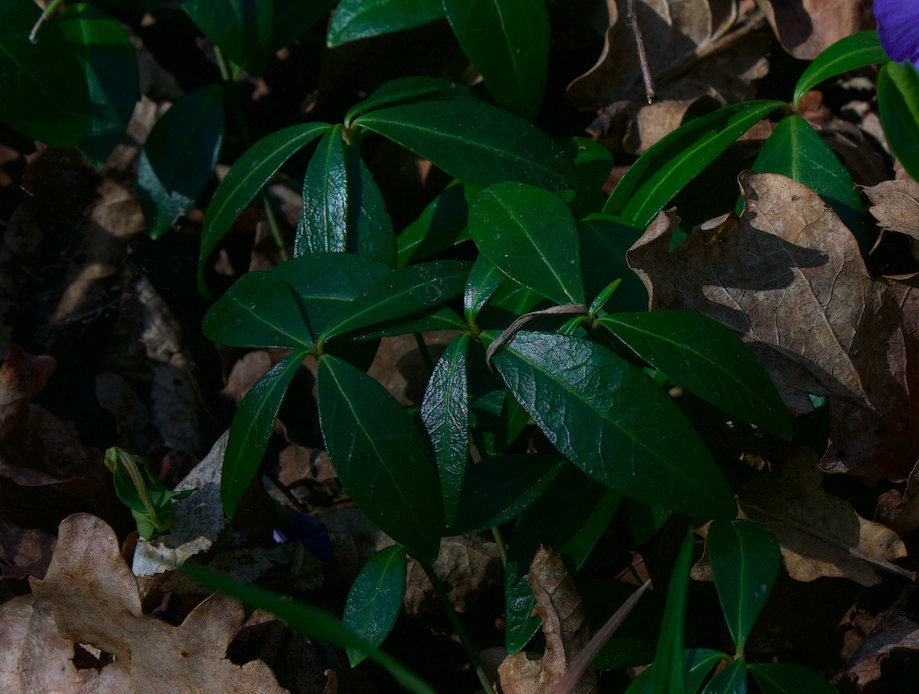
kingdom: Plantae
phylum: Tracheophyta
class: Magnoliopsida
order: Gentianales
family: Apocynaceae
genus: Vinca
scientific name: Vinca minor
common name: Lesser periwinkle
